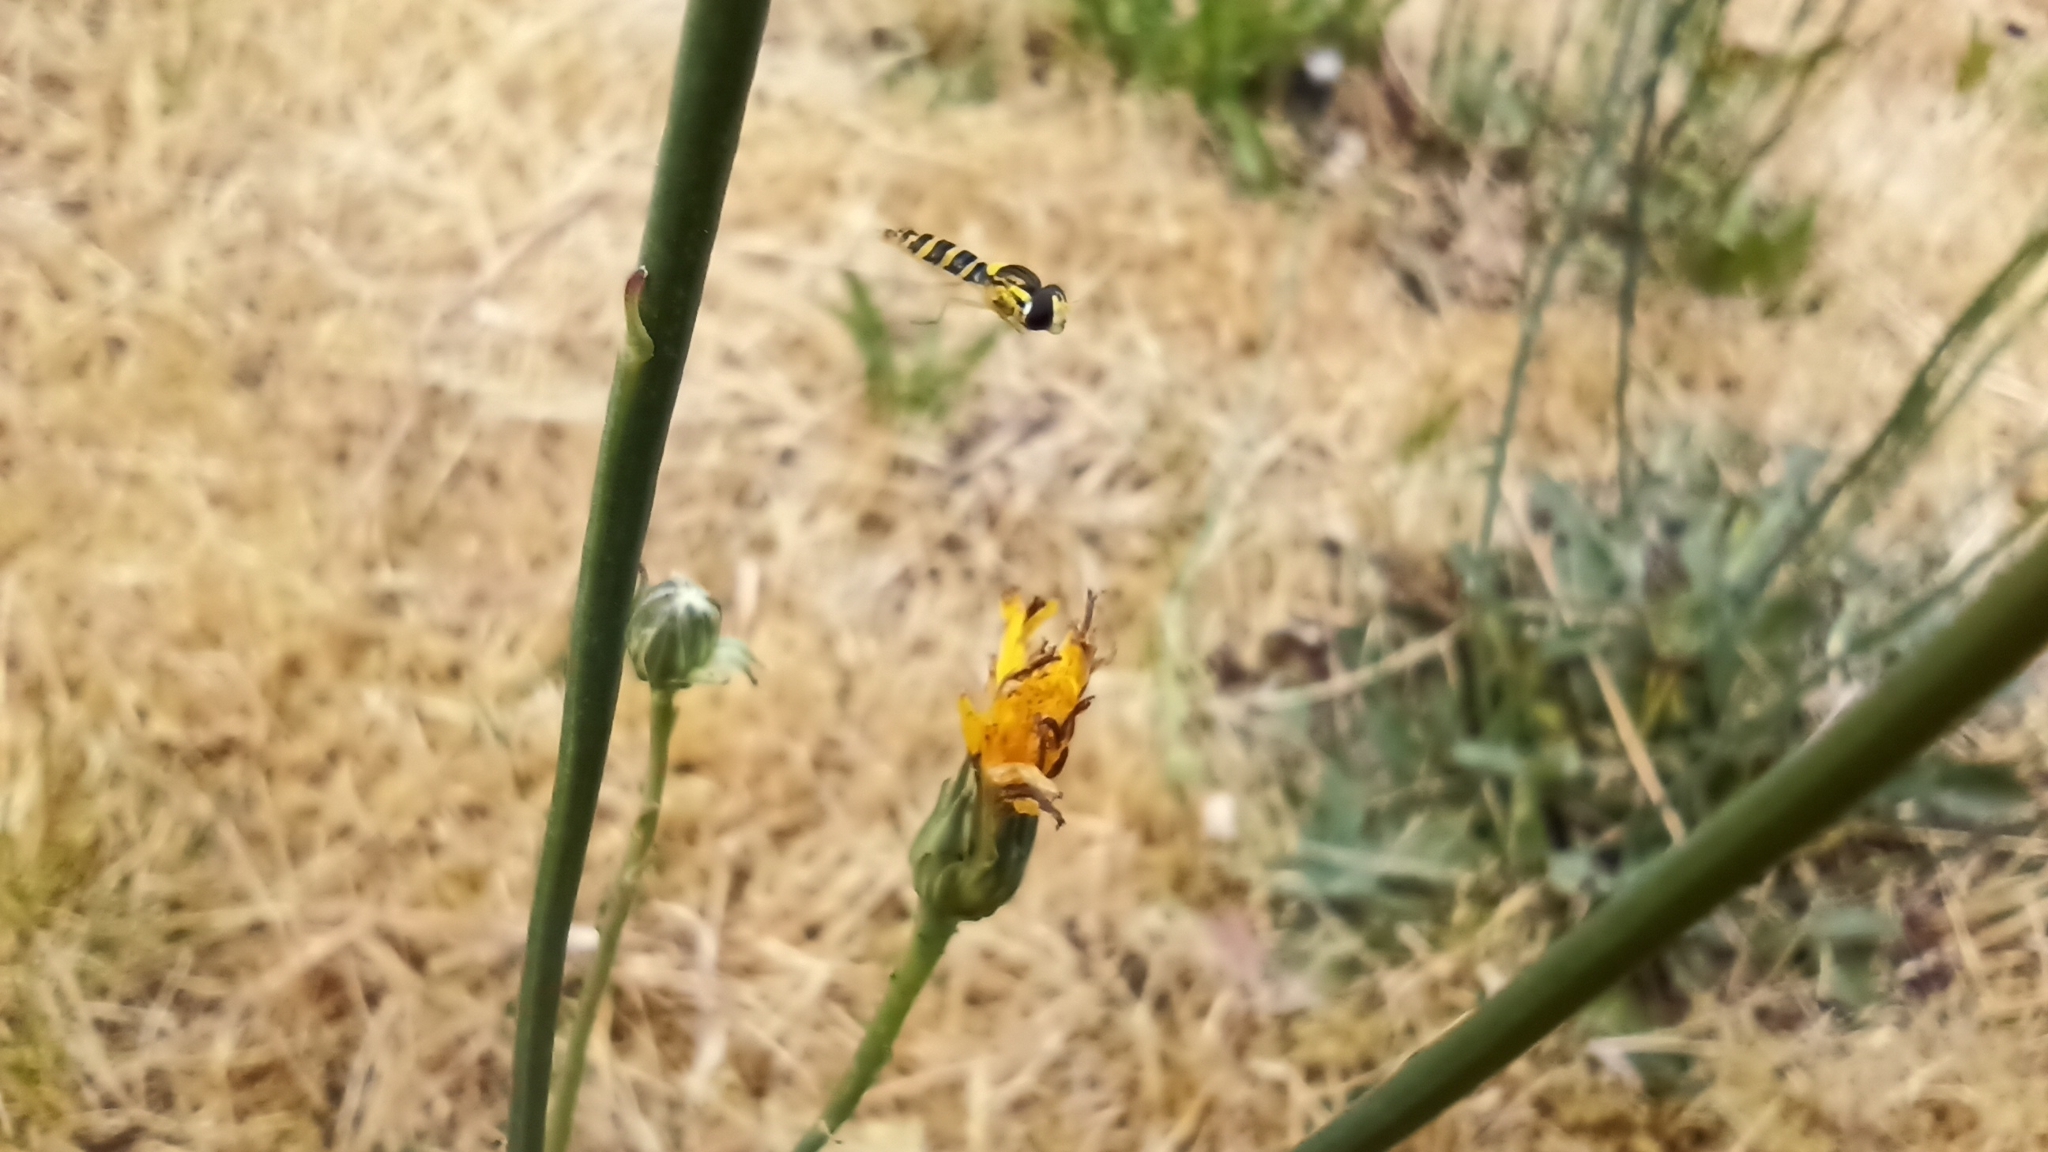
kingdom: Animalia
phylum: Arthropoda
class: Insecta
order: Diptera
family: Syrphidae
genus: Sphaerophoria
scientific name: Sphaerophoria
